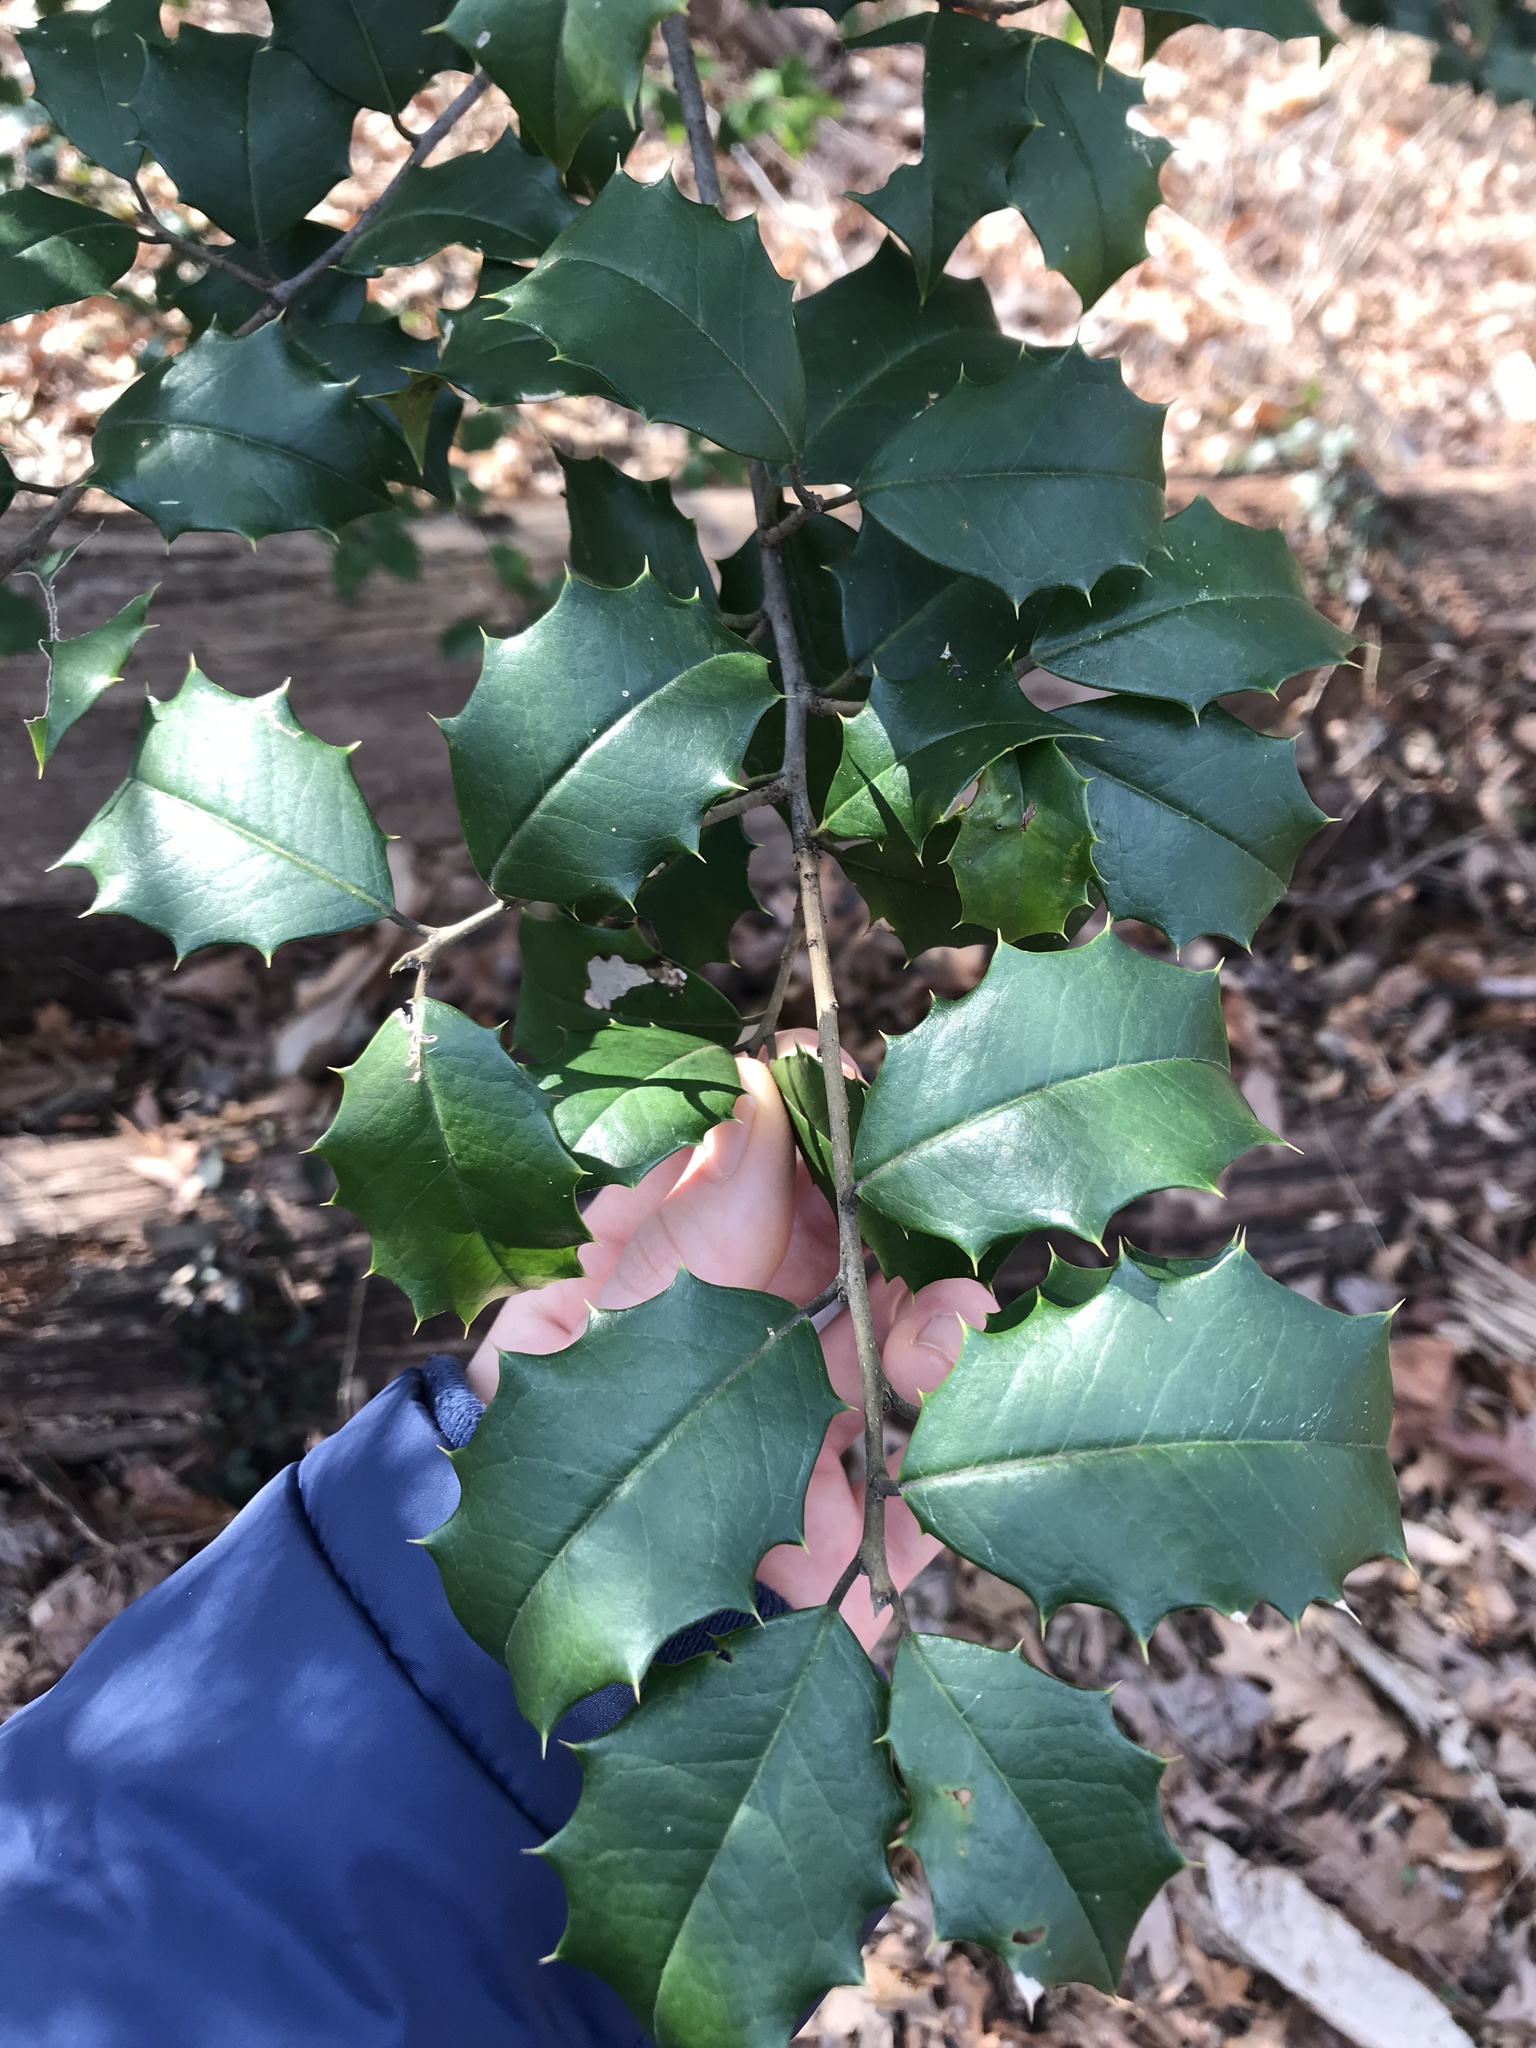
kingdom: Plantae
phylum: Tracheophyta
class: Magnoliopsida
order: Aquifoliales
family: Aquifoliaceae
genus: Ilex
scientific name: Ilex opaca
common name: American holly
